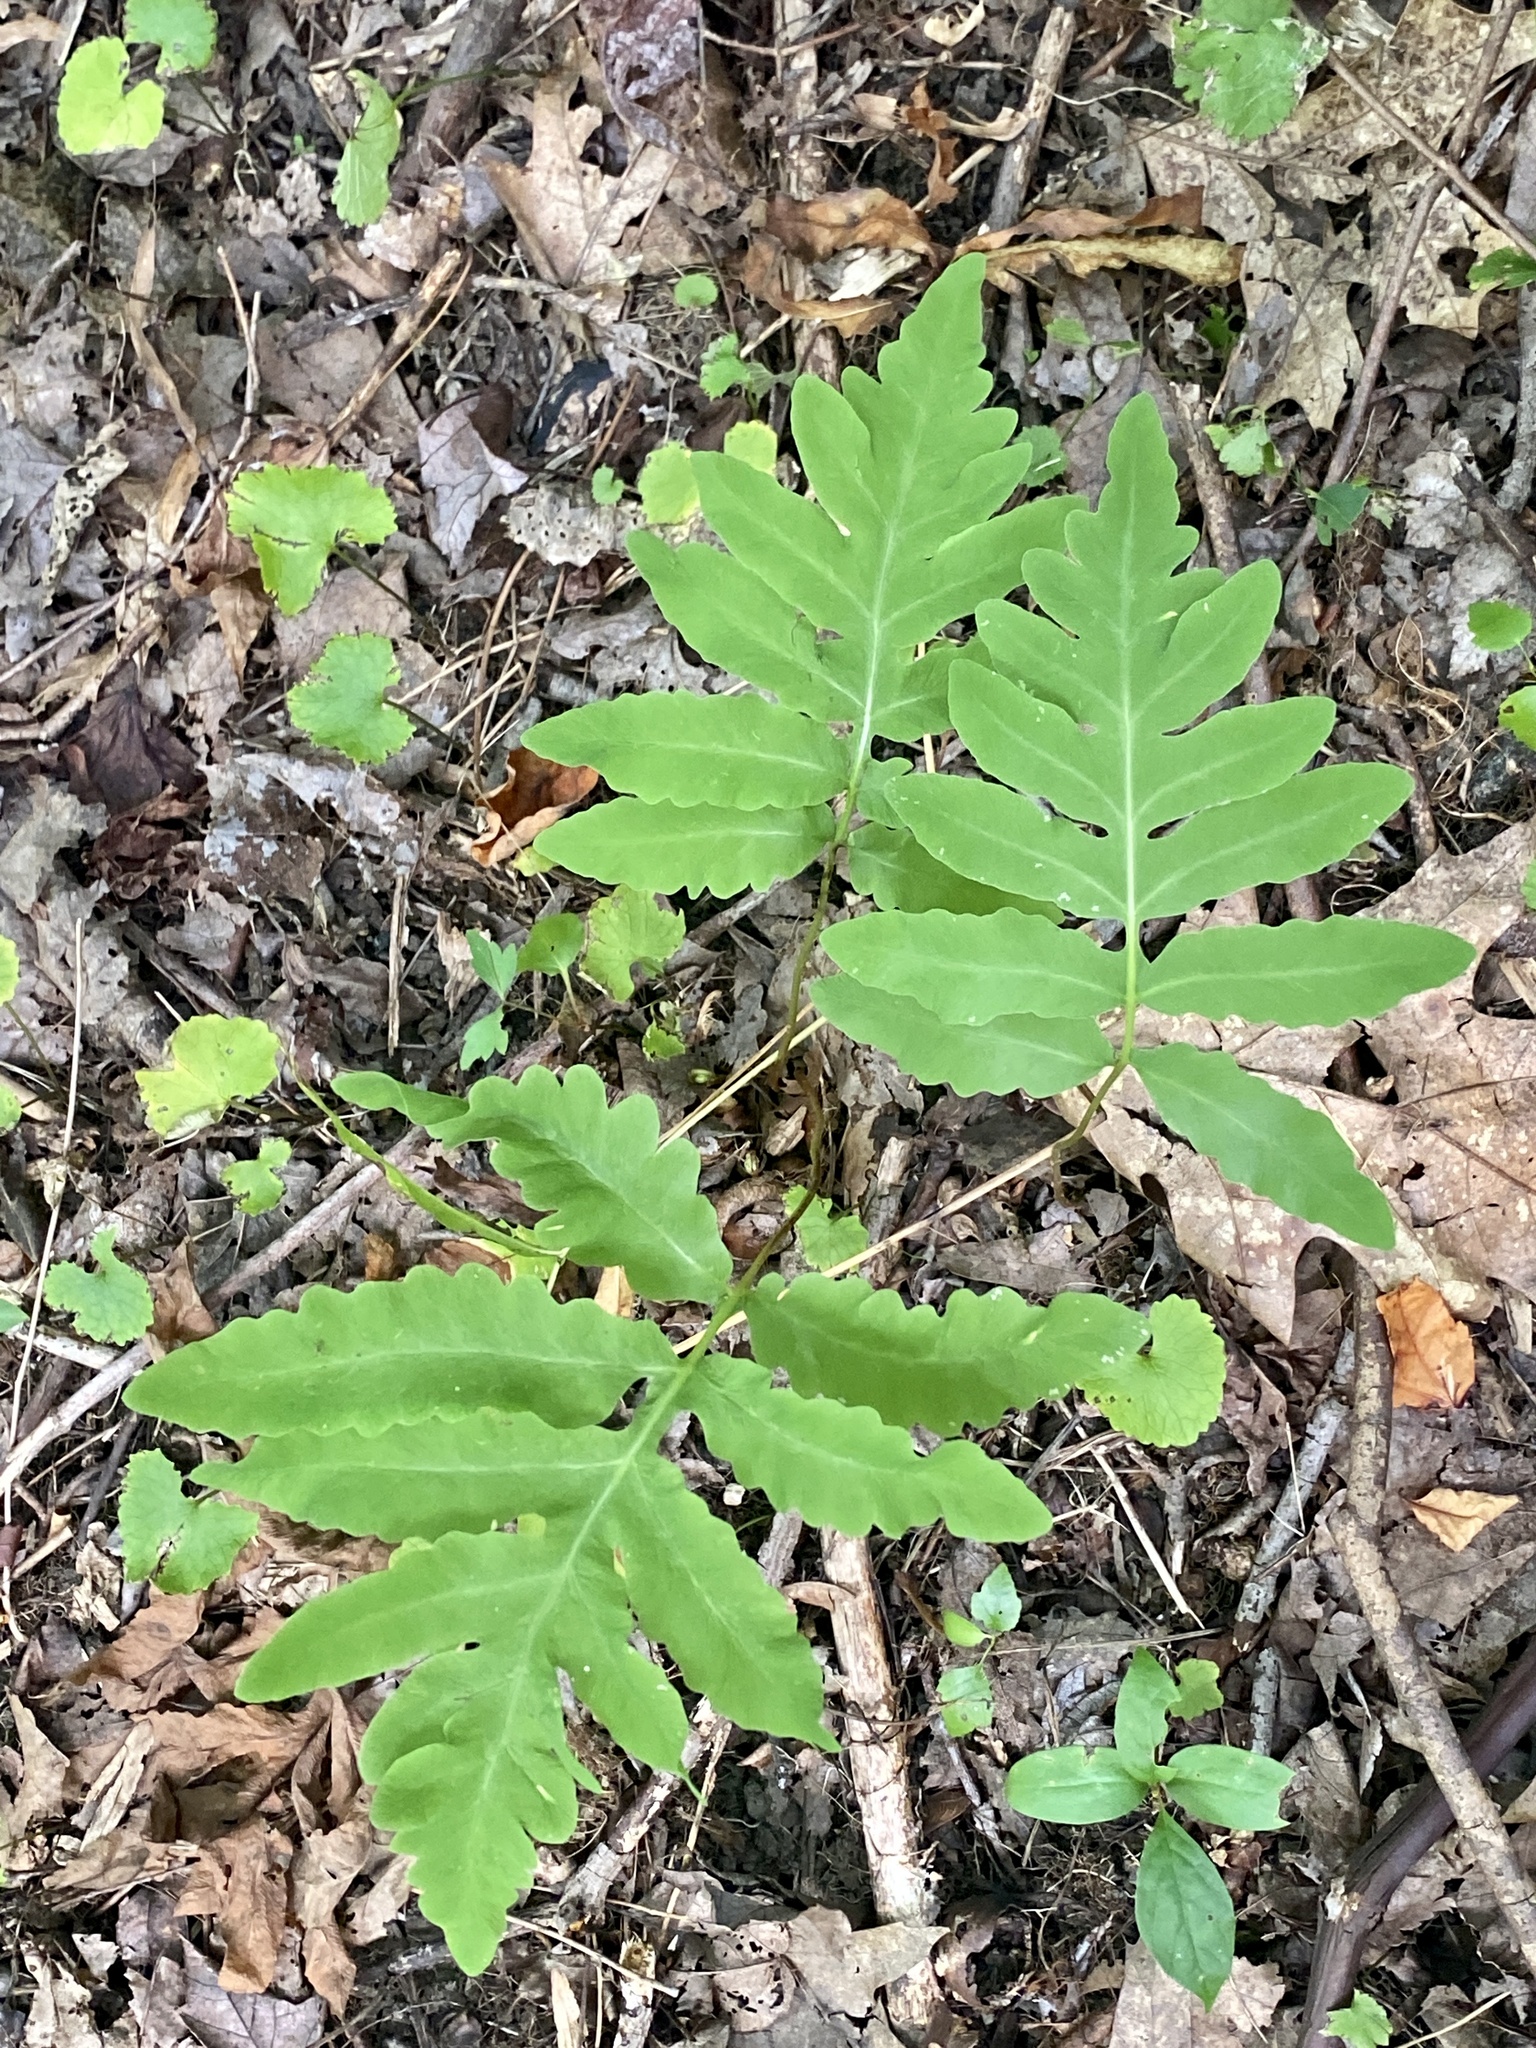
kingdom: Plantae
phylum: Tracheophyta
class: Polypodiopsida
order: Polypodiales
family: Onocleaceae
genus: Onoclea
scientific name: Onoclea sensibilis
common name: Sensitive fern
